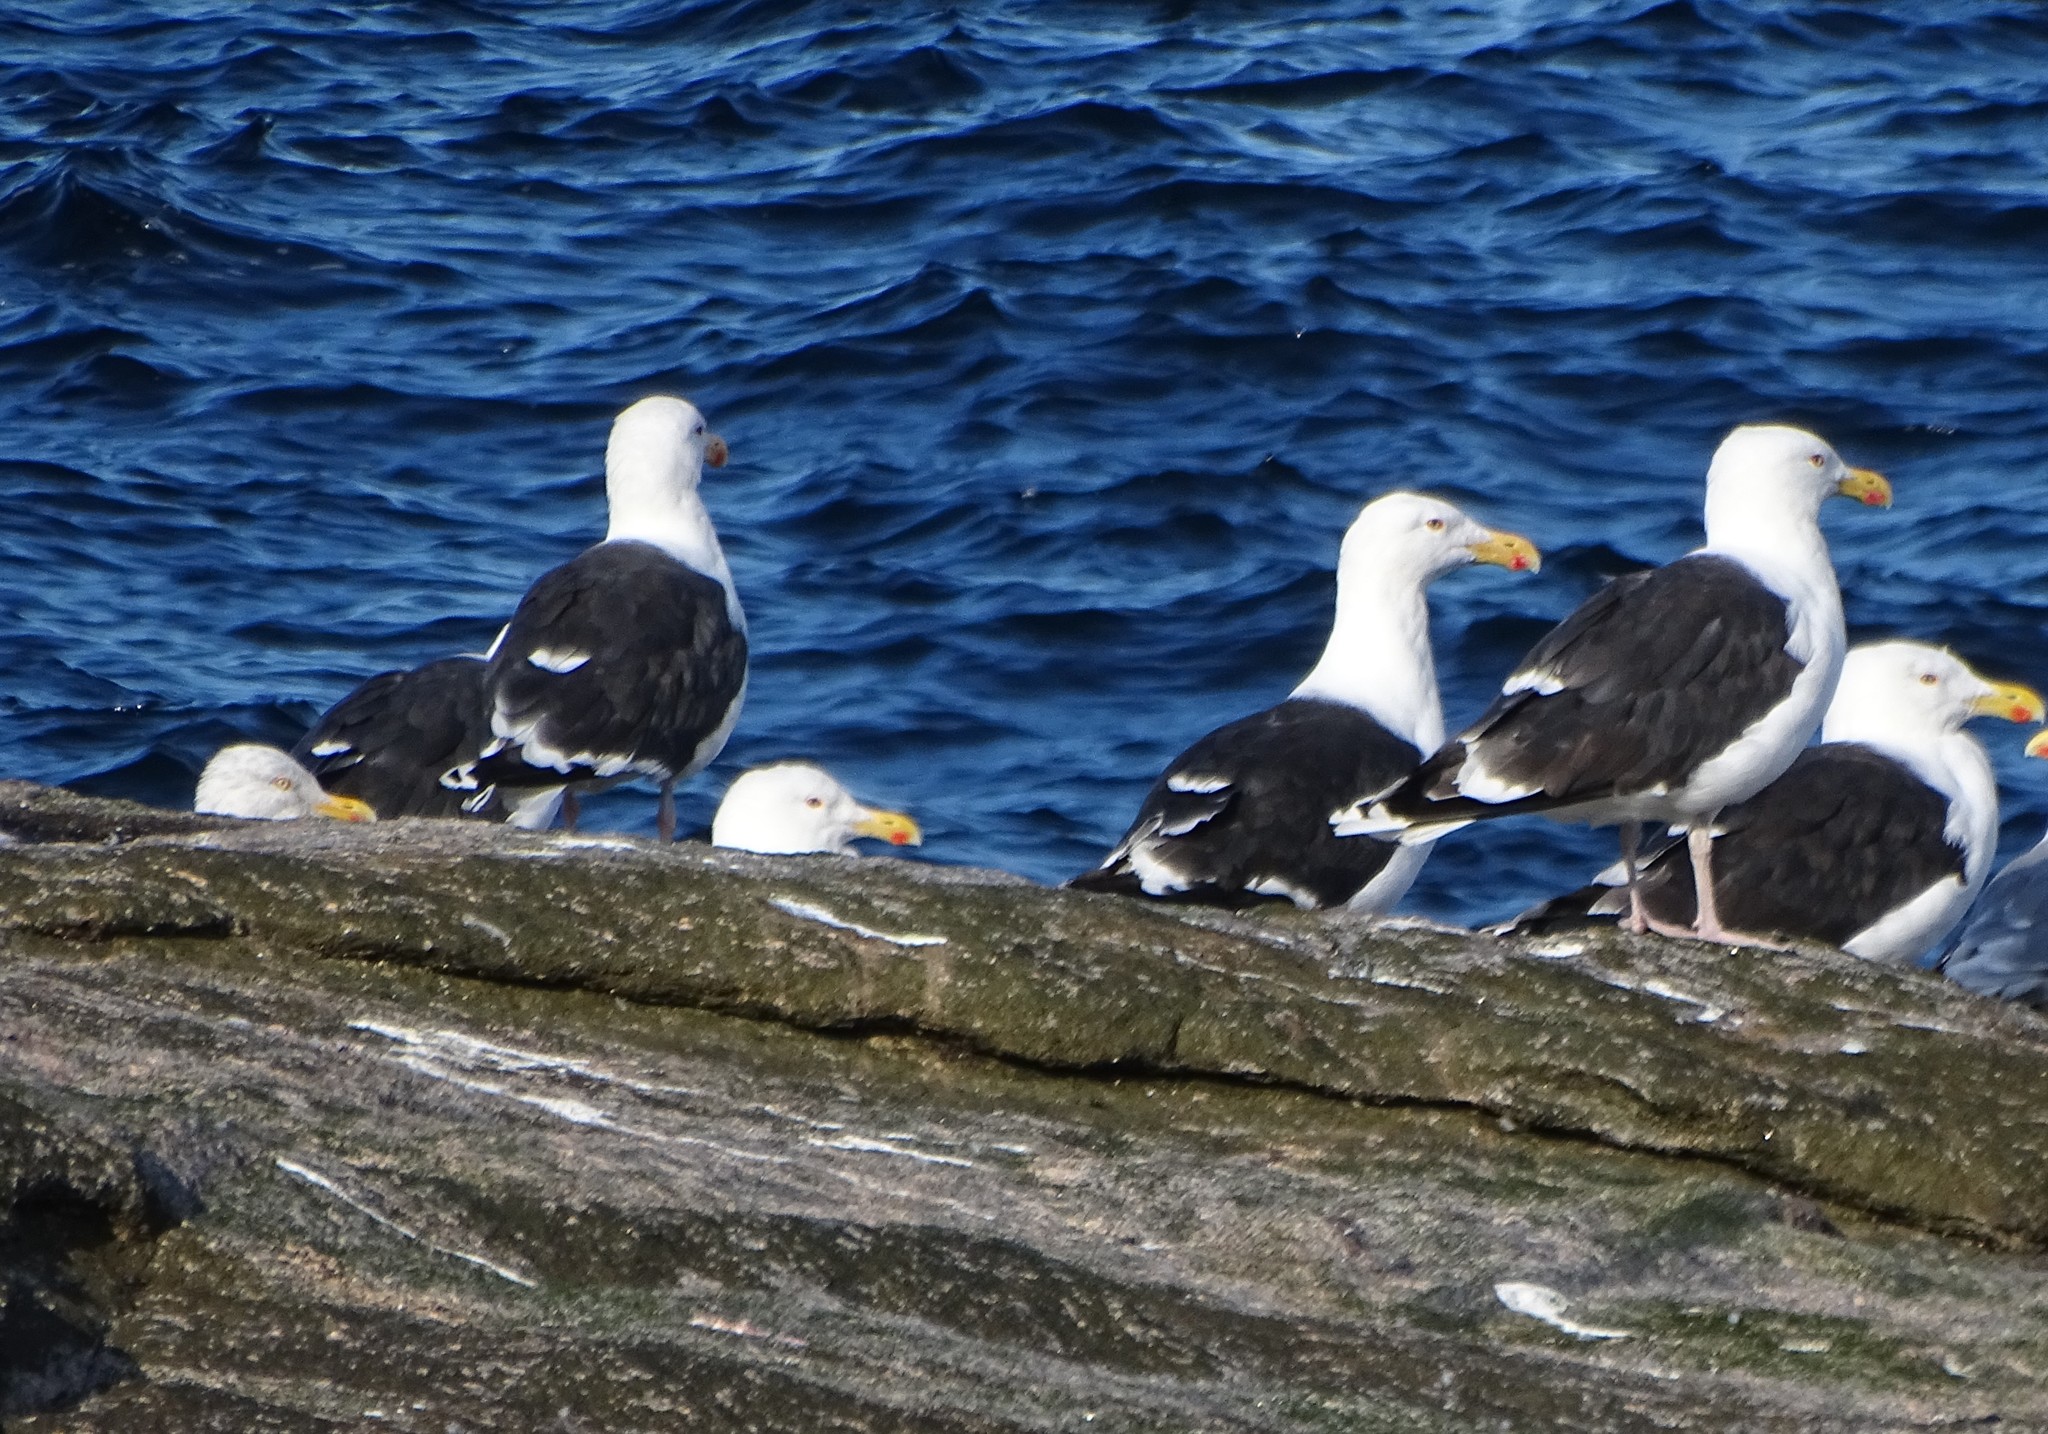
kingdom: Animalia
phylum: Chordata
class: Aves
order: Charadriiformes
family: Laridae
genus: Larus
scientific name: Larus marinus
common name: Great black-backed gull
